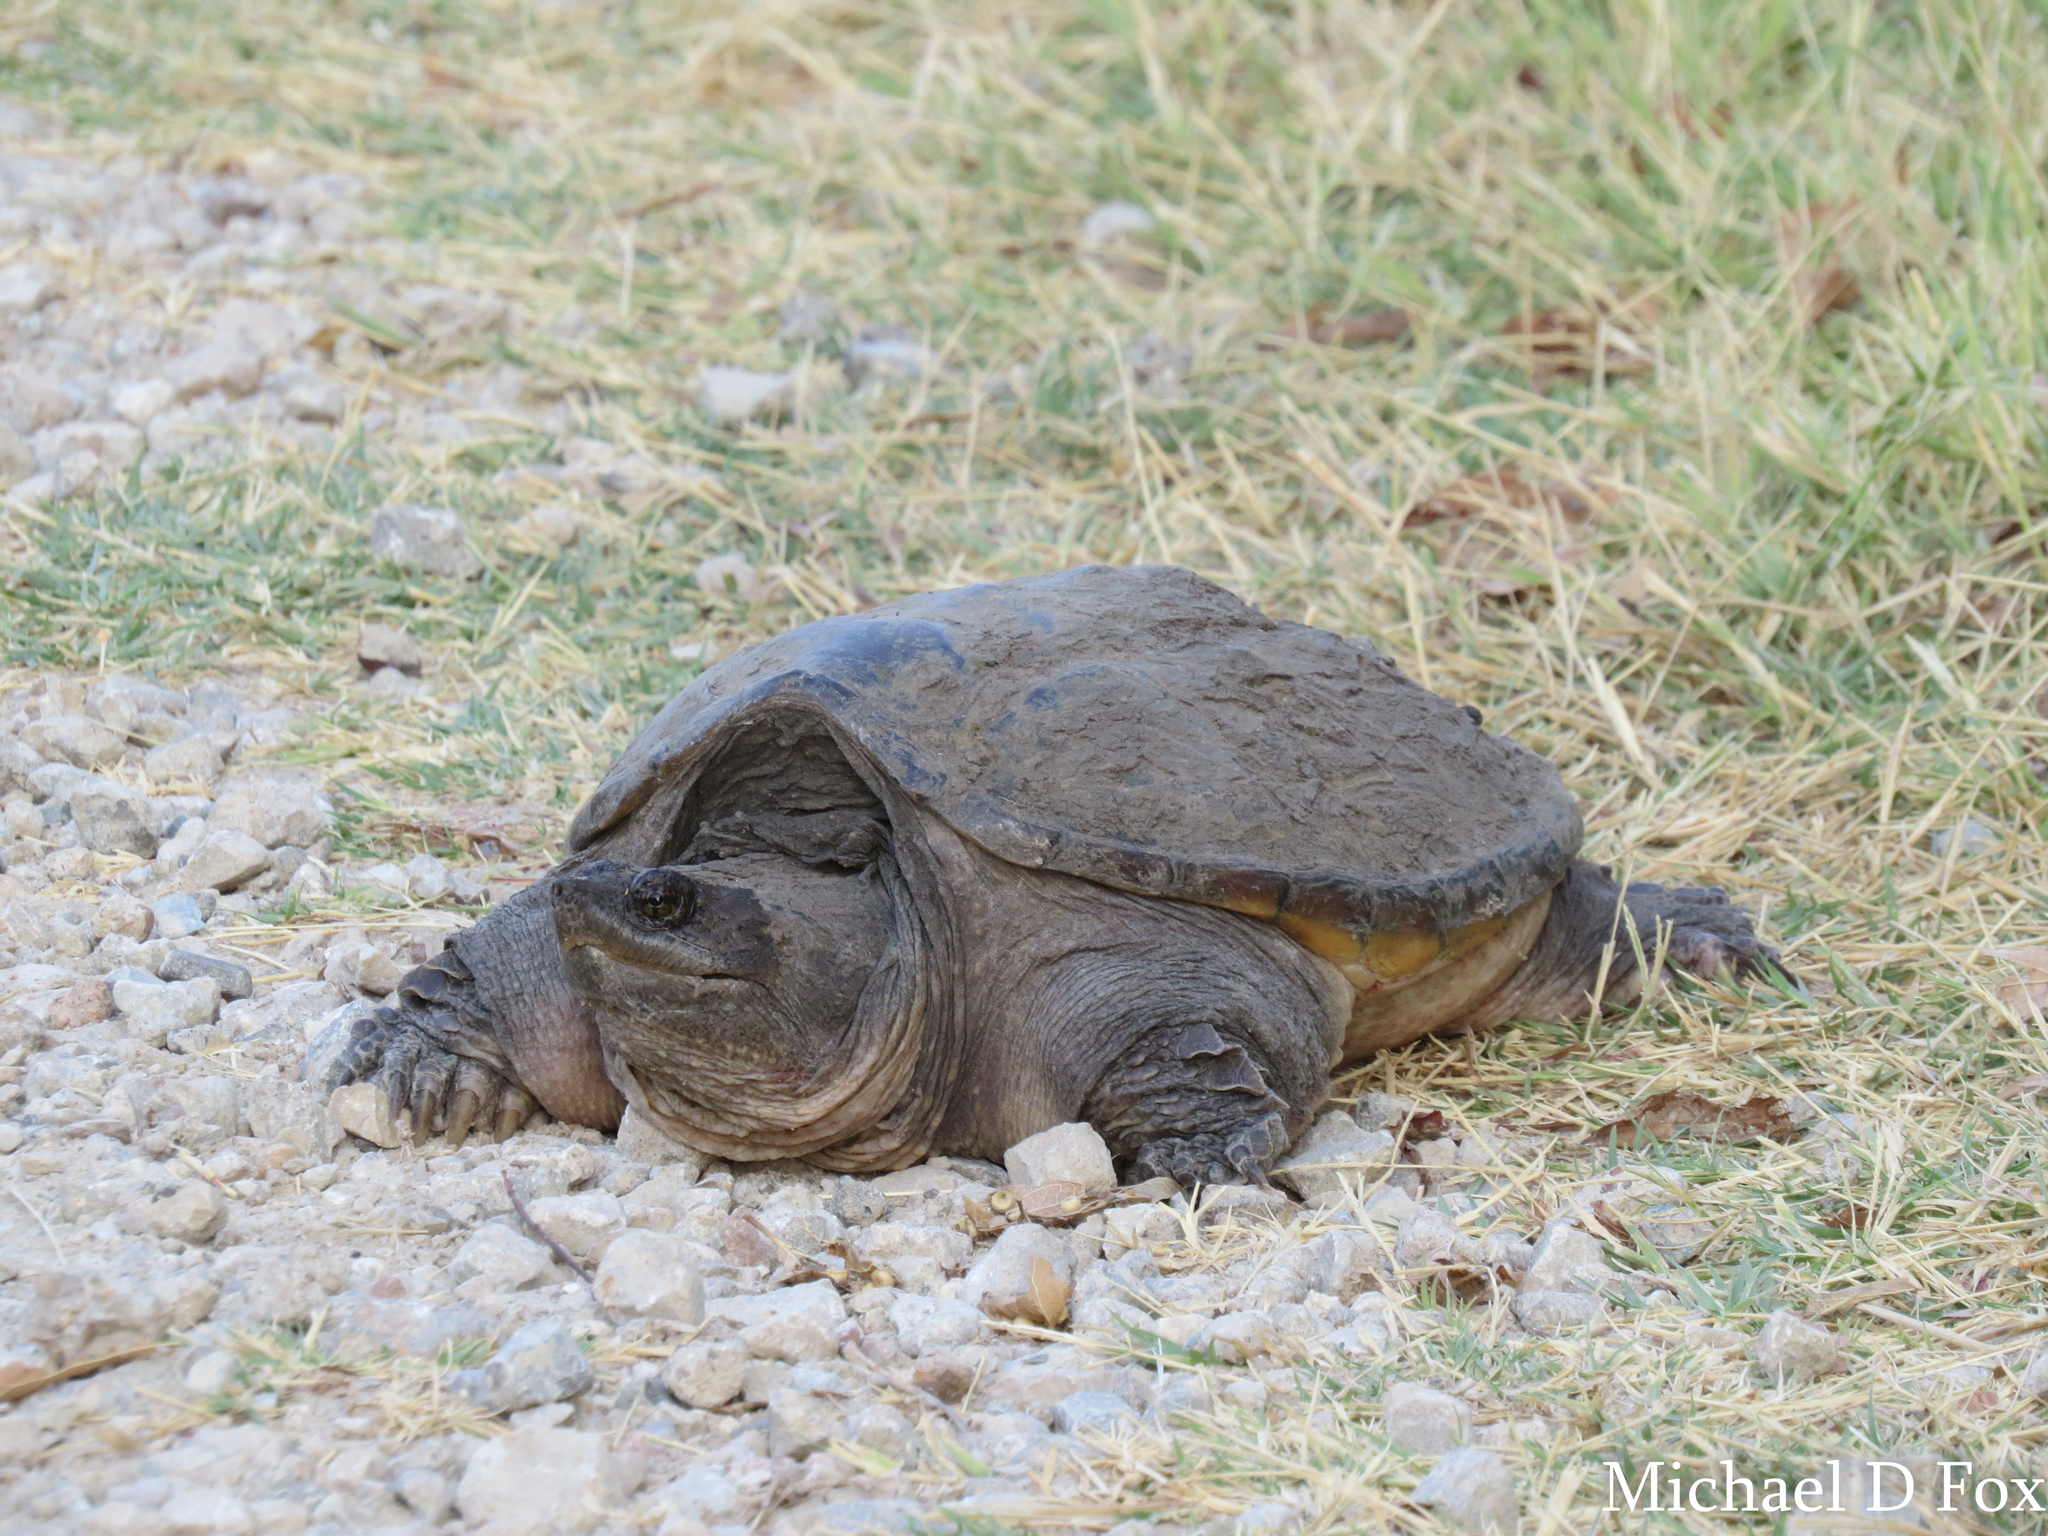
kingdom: Animalia
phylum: Chordata
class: Testudines
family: Chelydridae
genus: Chelydra
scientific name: Chelydra serpentina
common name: Common snapping turtle
